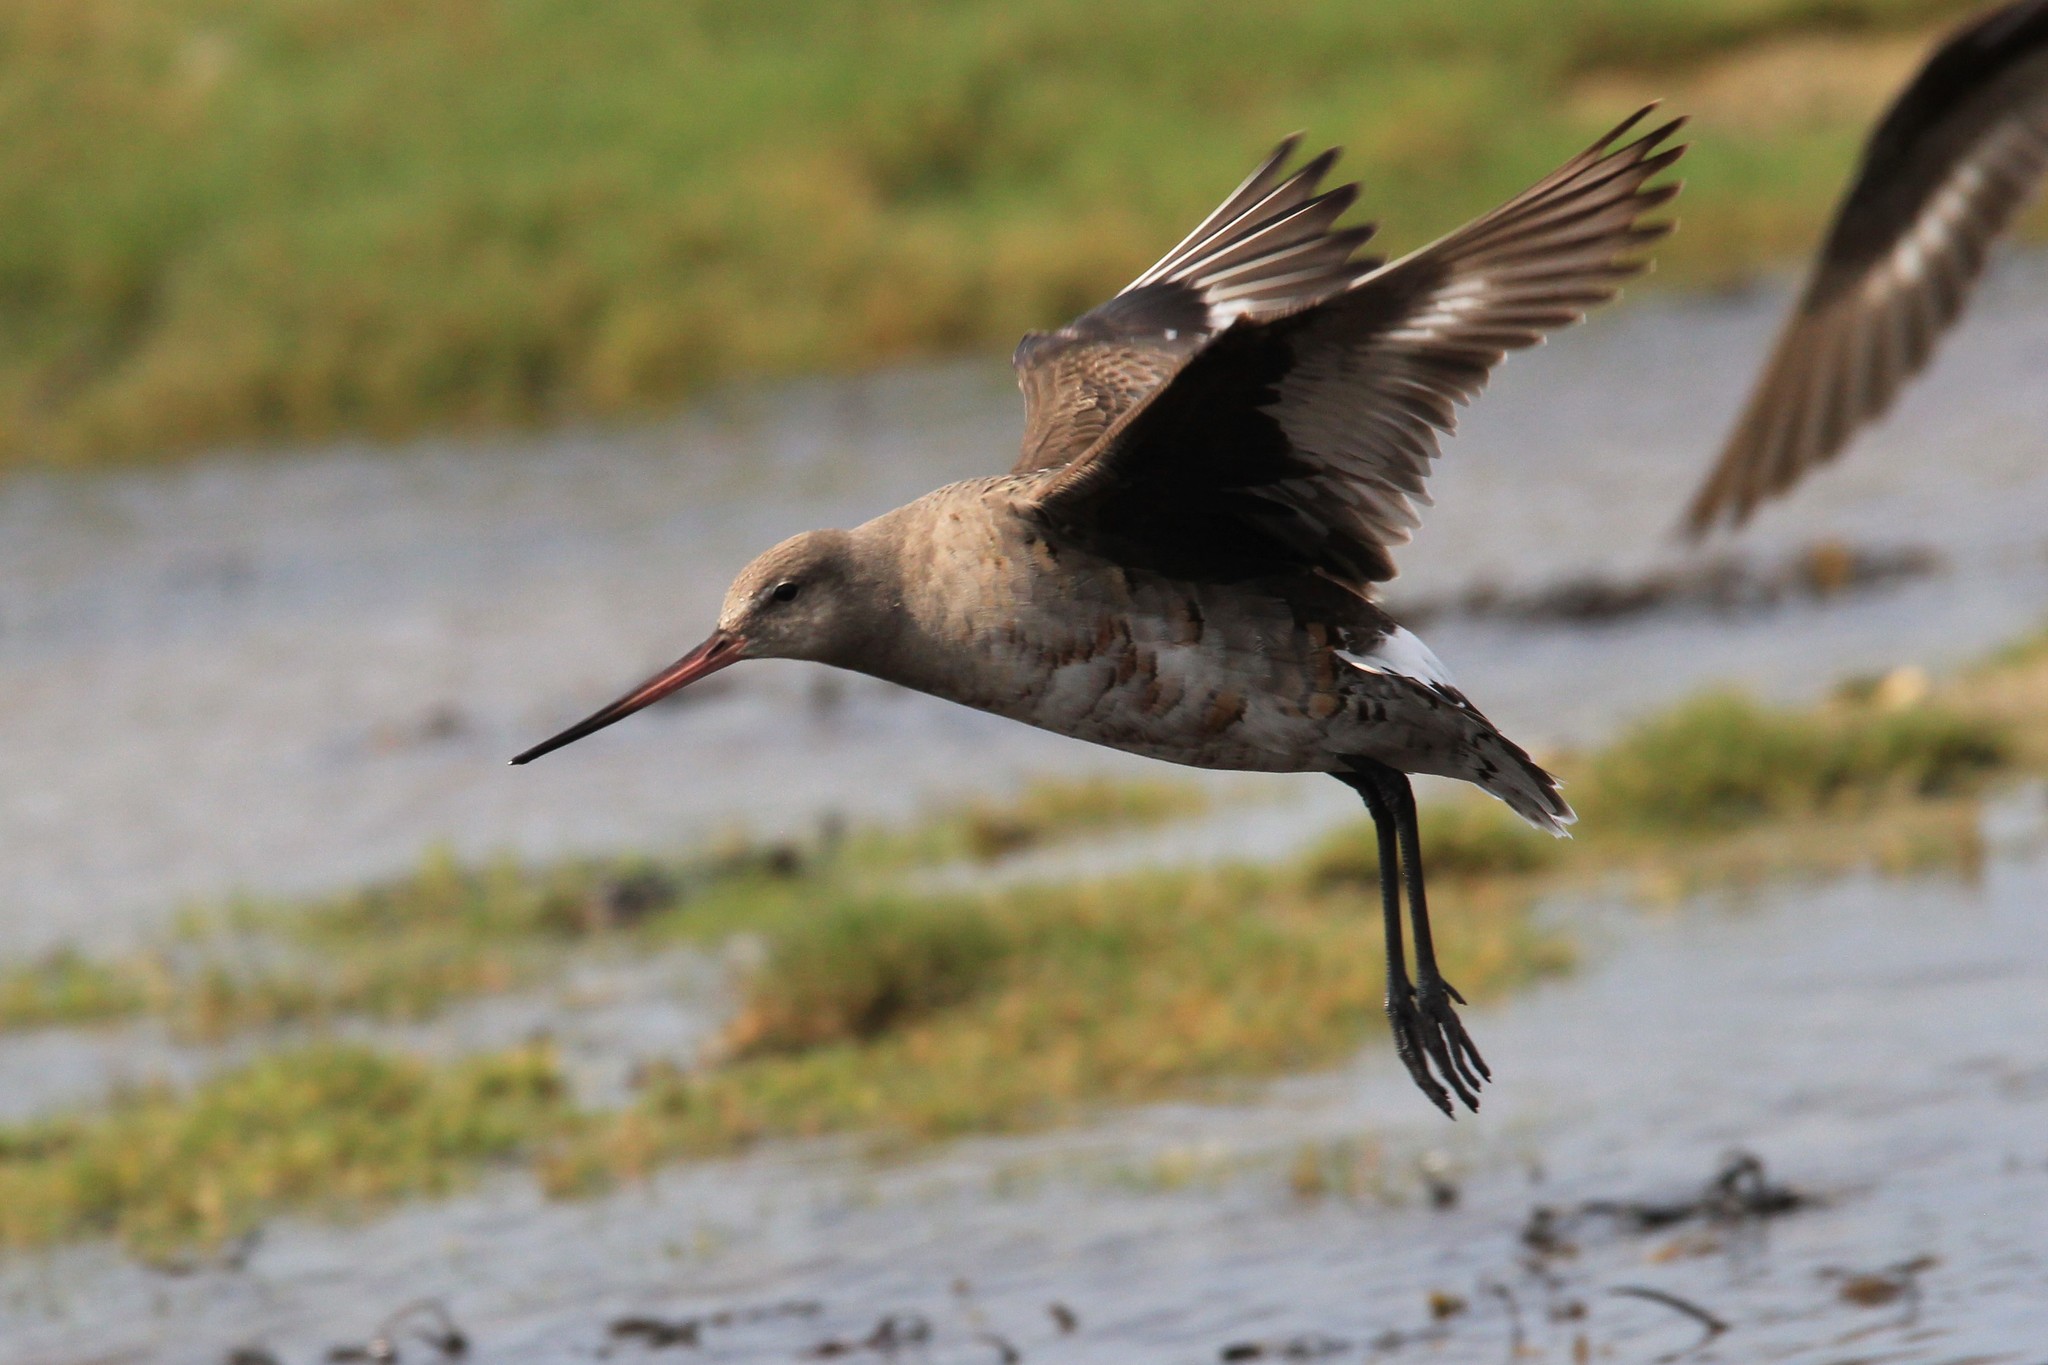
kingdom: Animalia
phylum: Chordata
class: Aves
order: Charadriiformes
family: Scolopacidae
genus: Limosa
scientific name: Limosa haemastica
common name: Hudsonian godwit
